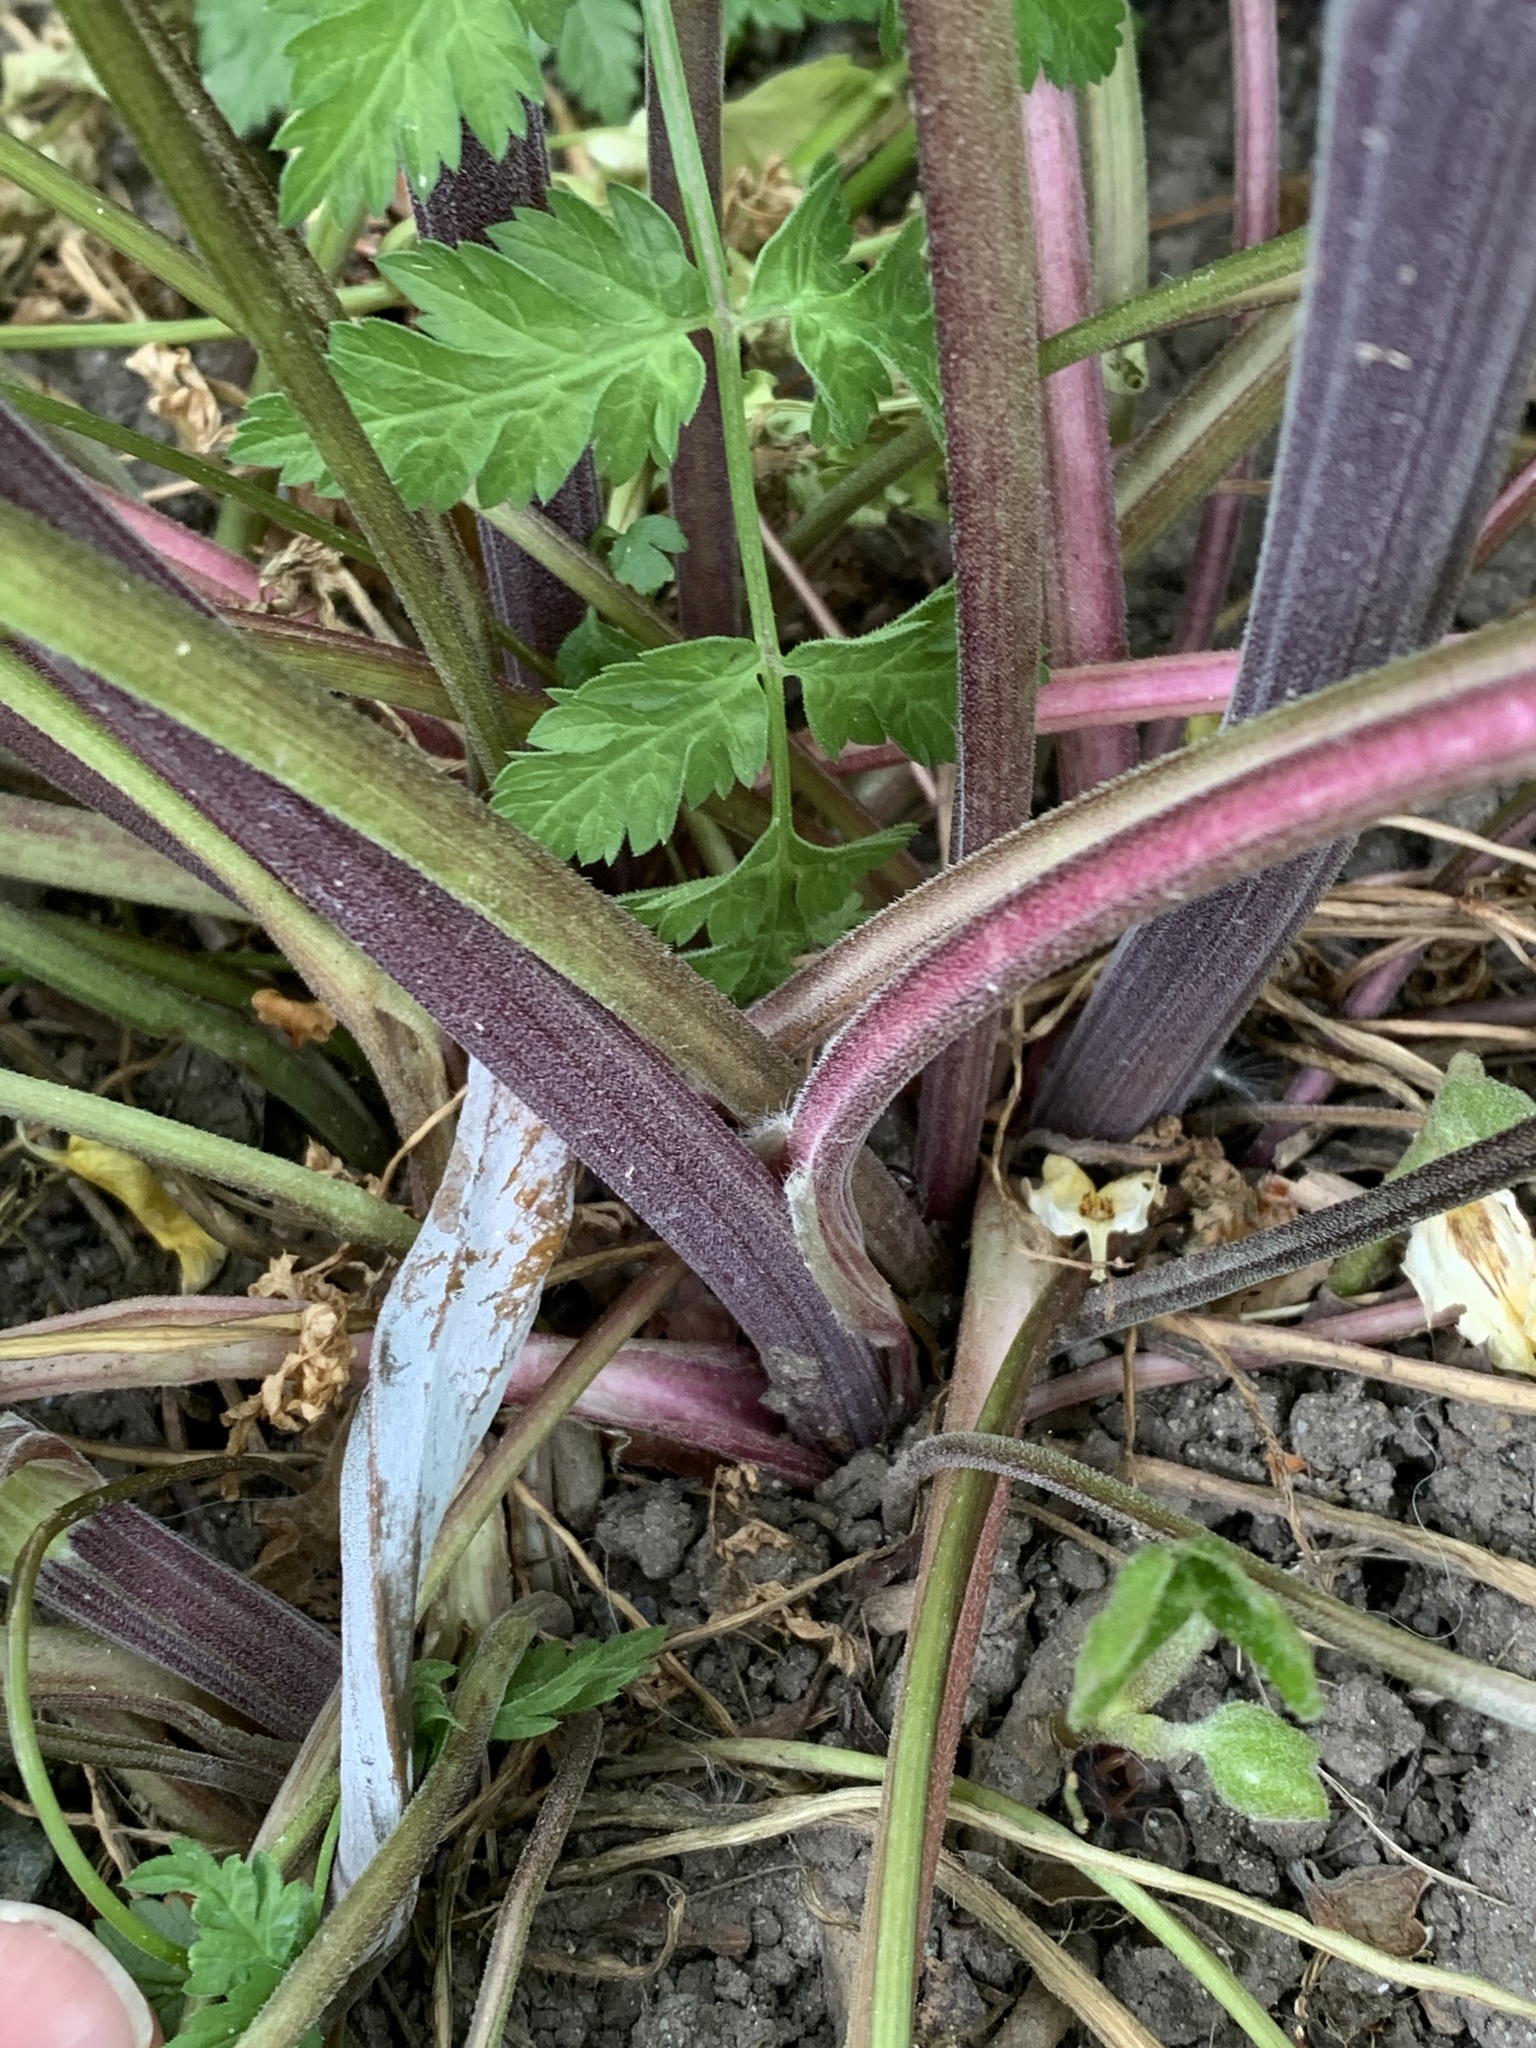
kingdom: Plantae
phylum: Tracheophyta
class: Magnoliopsida
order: Apiales
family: Apiaceae
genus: Anthriscus
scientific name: Anthriscus sylvestris
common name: Cow parsley
